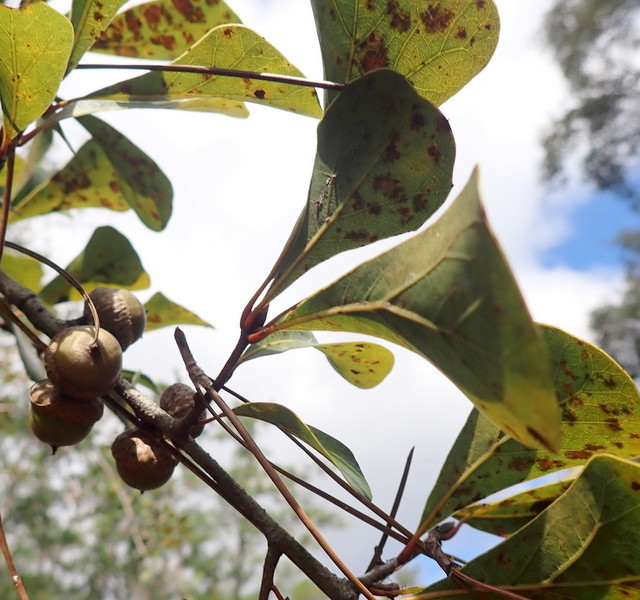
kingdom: Plantae
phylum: Tracheophyta
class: Magnoliopsida
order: Fagales
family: Fagaceae
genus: Quercus
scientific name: Quercus nigra
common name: Water oak
